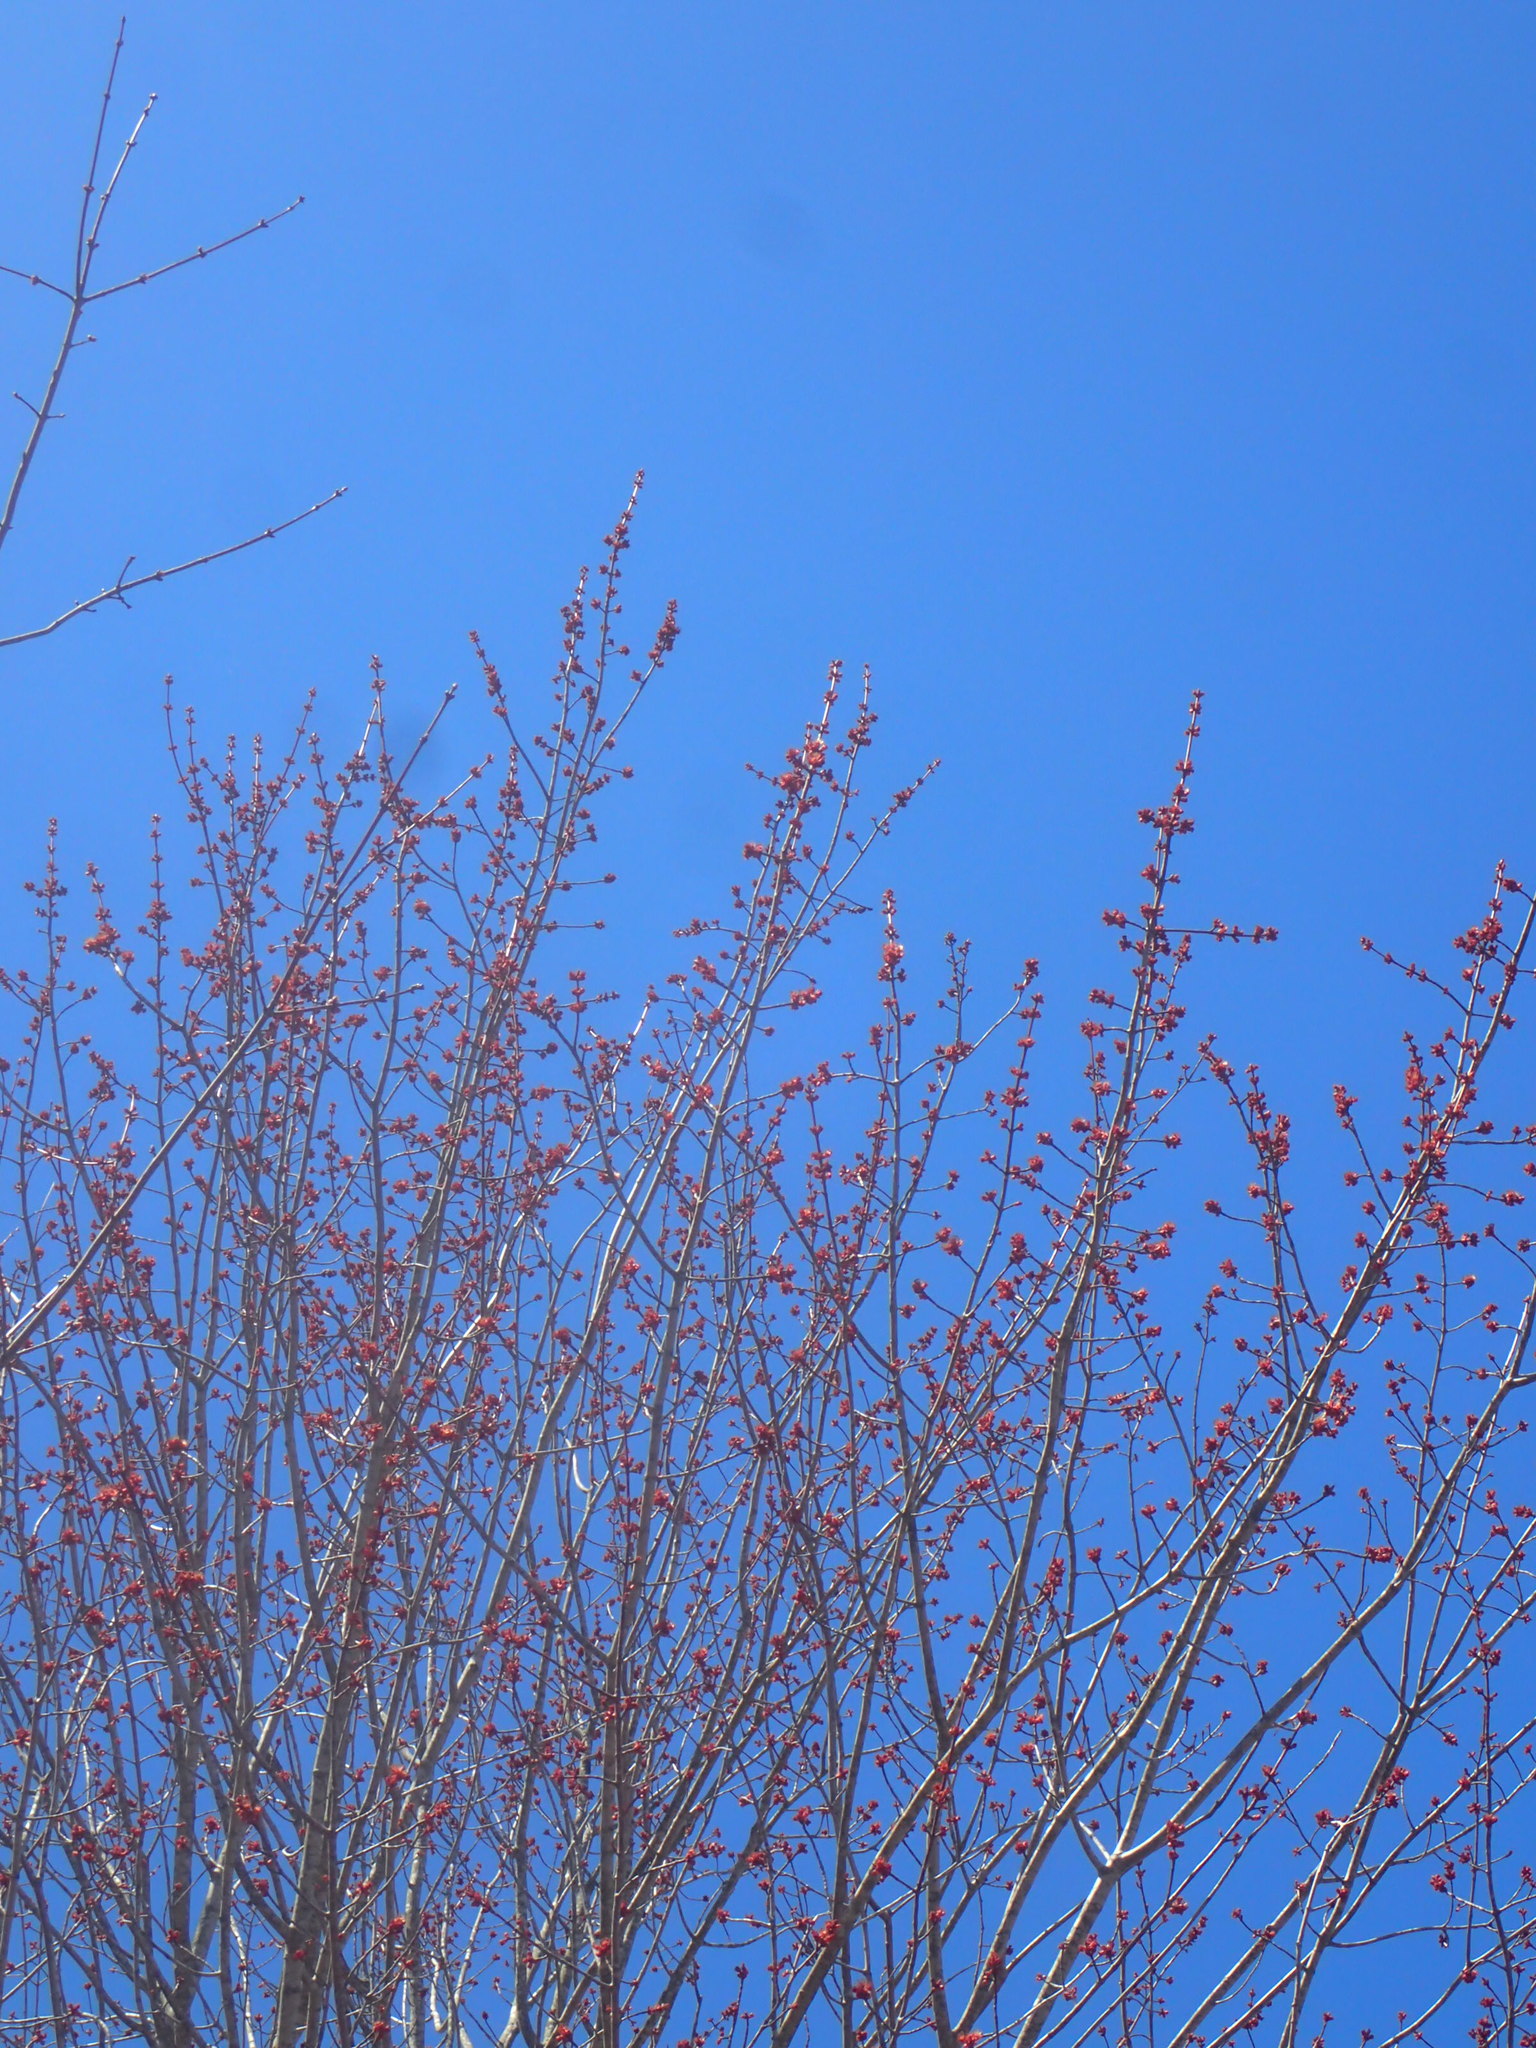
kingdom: Plantae
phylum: Tracheophyta
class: Magnoliopsida
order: Sapindales
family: Sapindaceae
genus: Acer
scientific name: Acer rubrum
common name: Red maple
